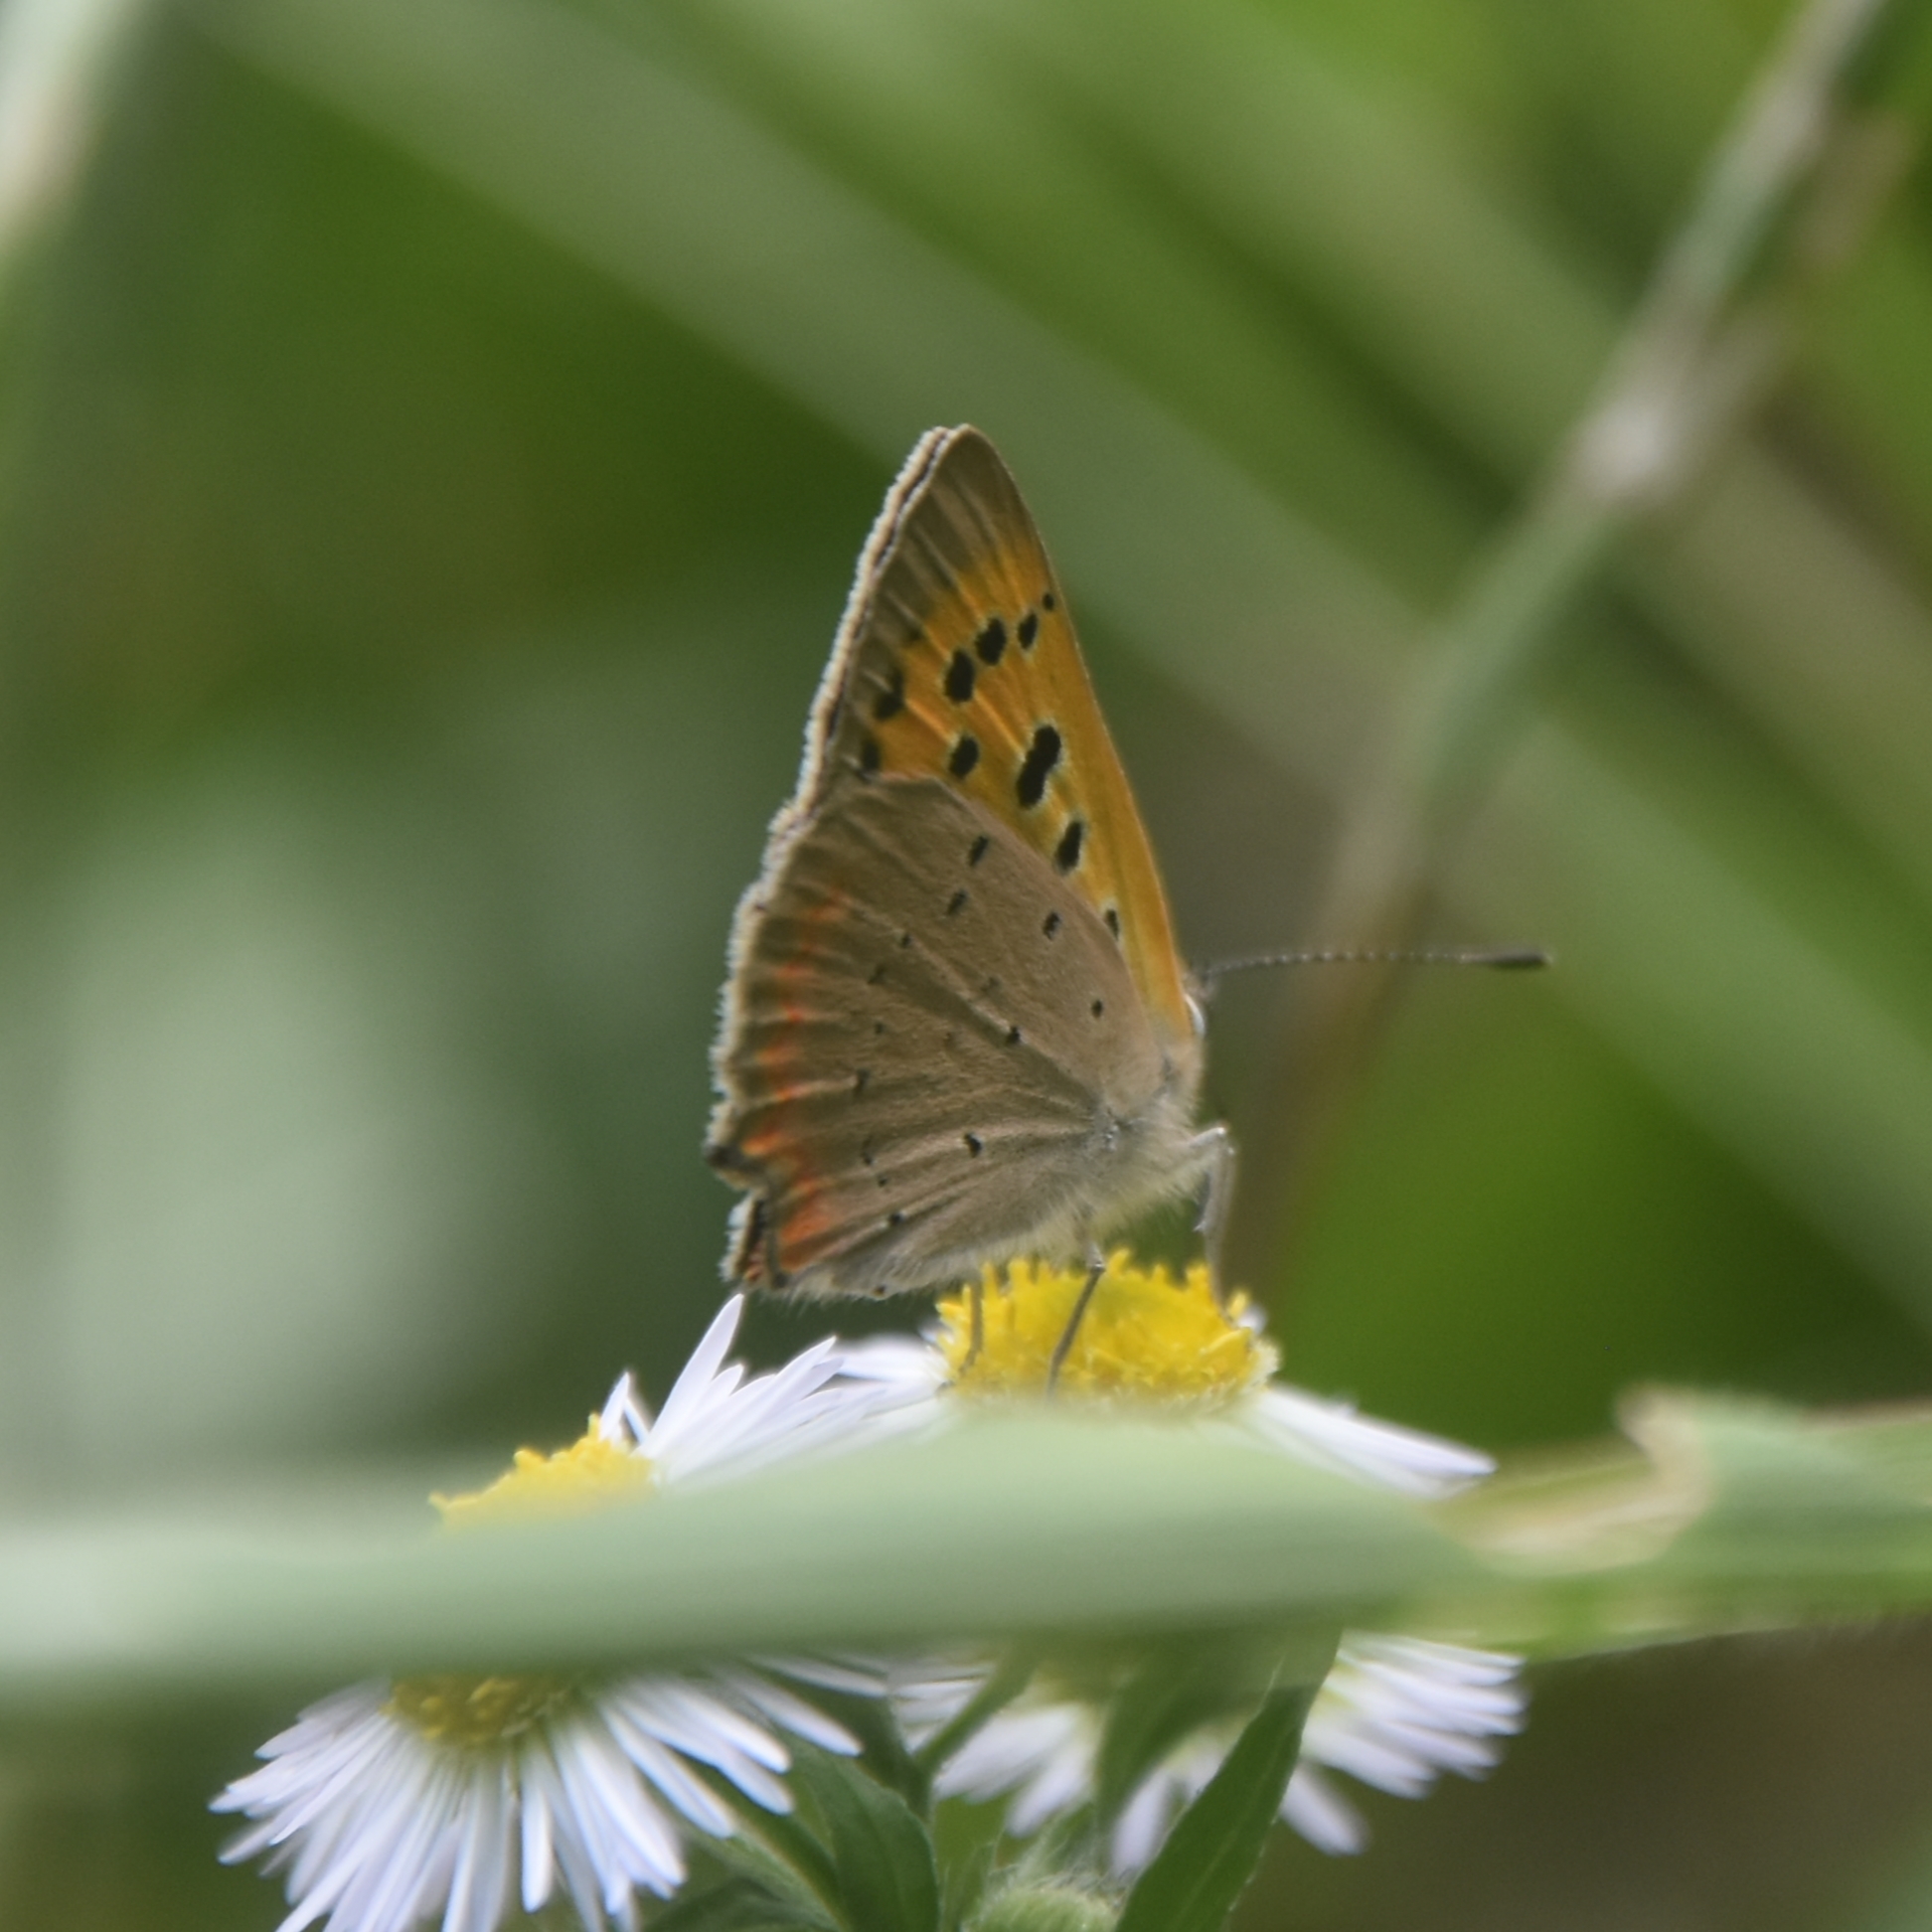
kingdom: Animalia
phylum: Arthropoda
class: Insecta
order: Lepidoptera
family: Lycaenidae
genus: Lycaena
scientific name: Lycaena phlaeas
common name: Small copper
